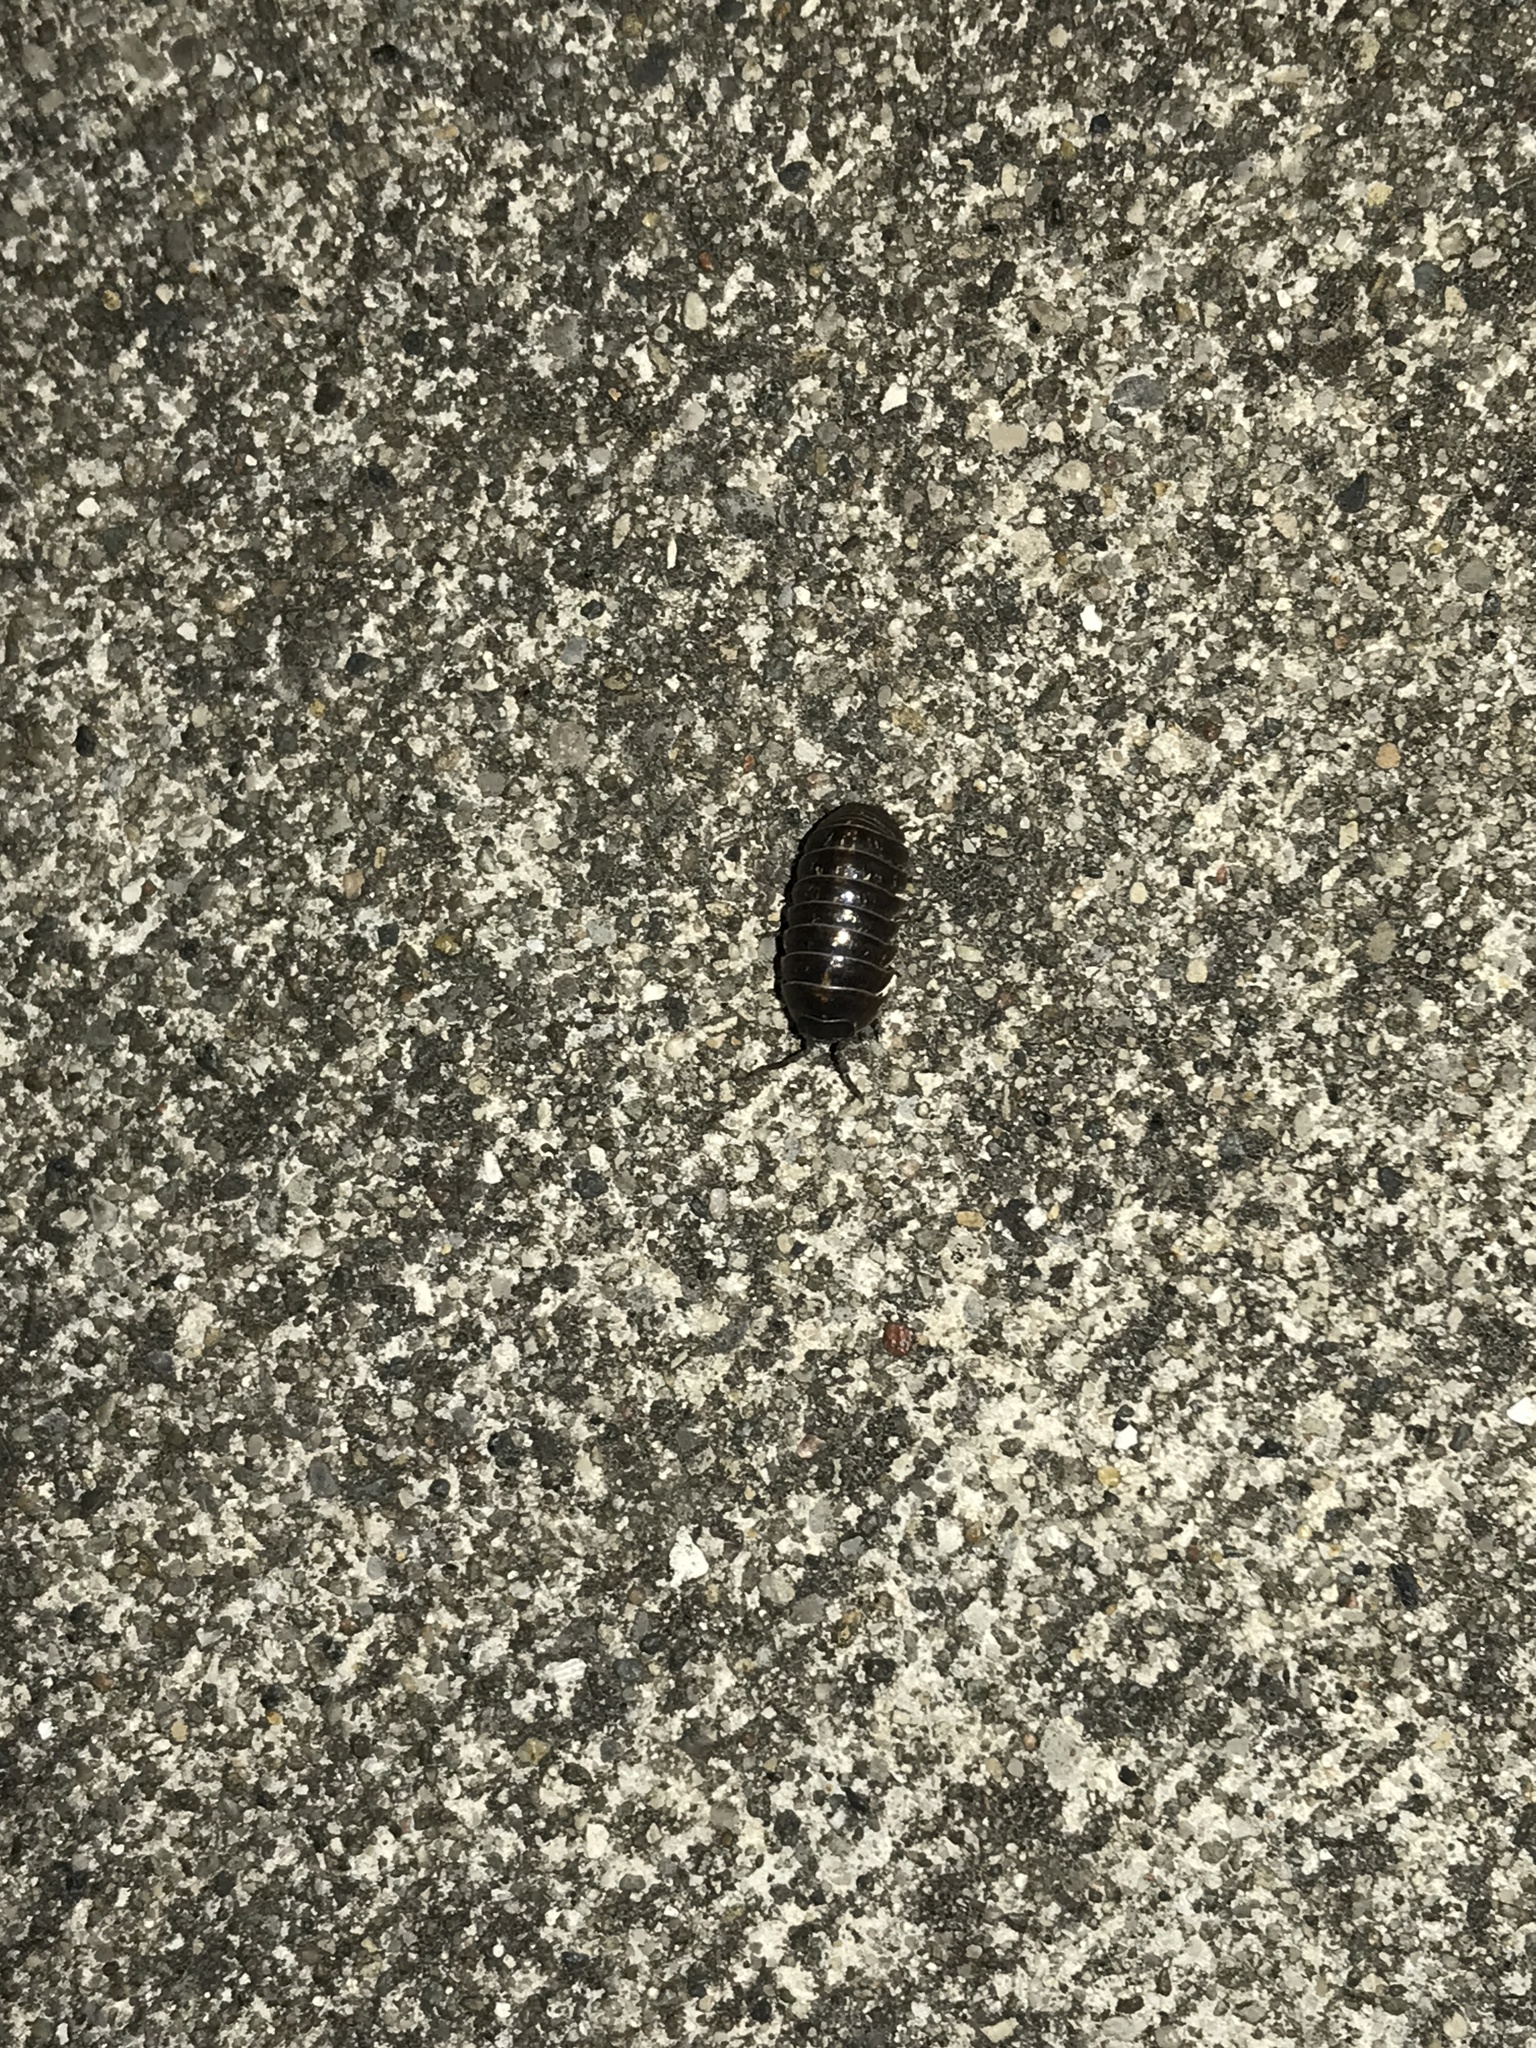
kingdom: Animalia
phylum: Arthropoda
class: Malacostraca
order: Isopoda
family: Armadillidiidae
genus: Armadillidium
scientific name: Armadillidium vulgare
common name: Common pill woodlouse
